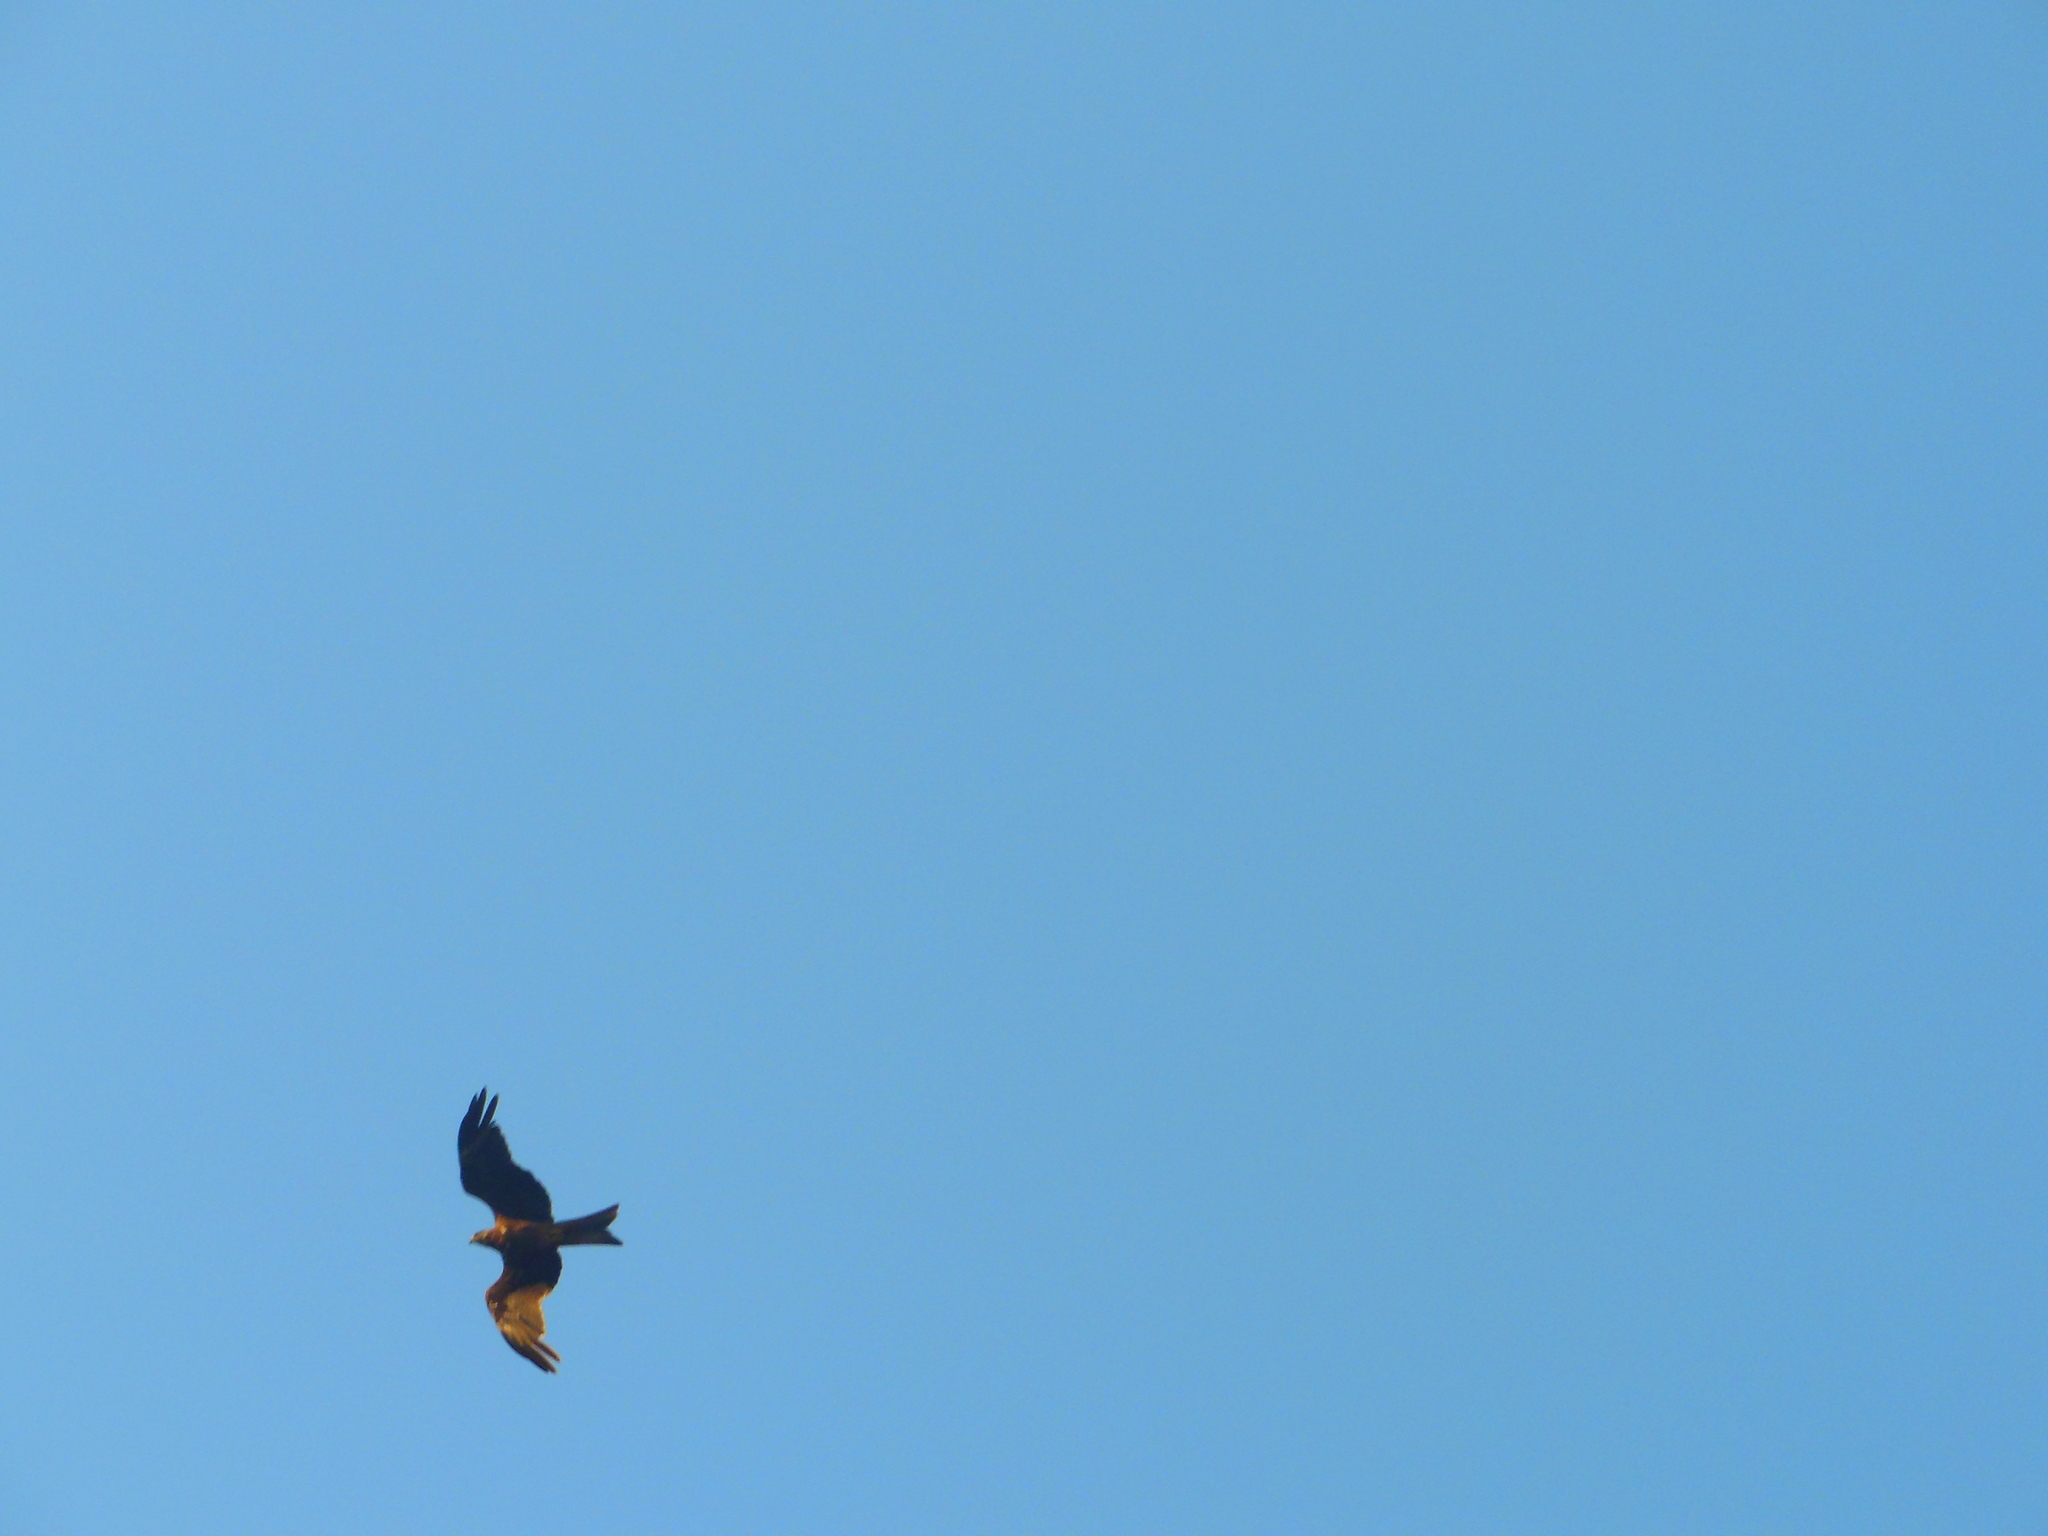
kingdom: Animalia
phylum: Chordata
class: Aves
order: Accipitriformes
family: Accipitridae
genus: Milvus
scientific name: Milvus migrans
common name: Black kite
